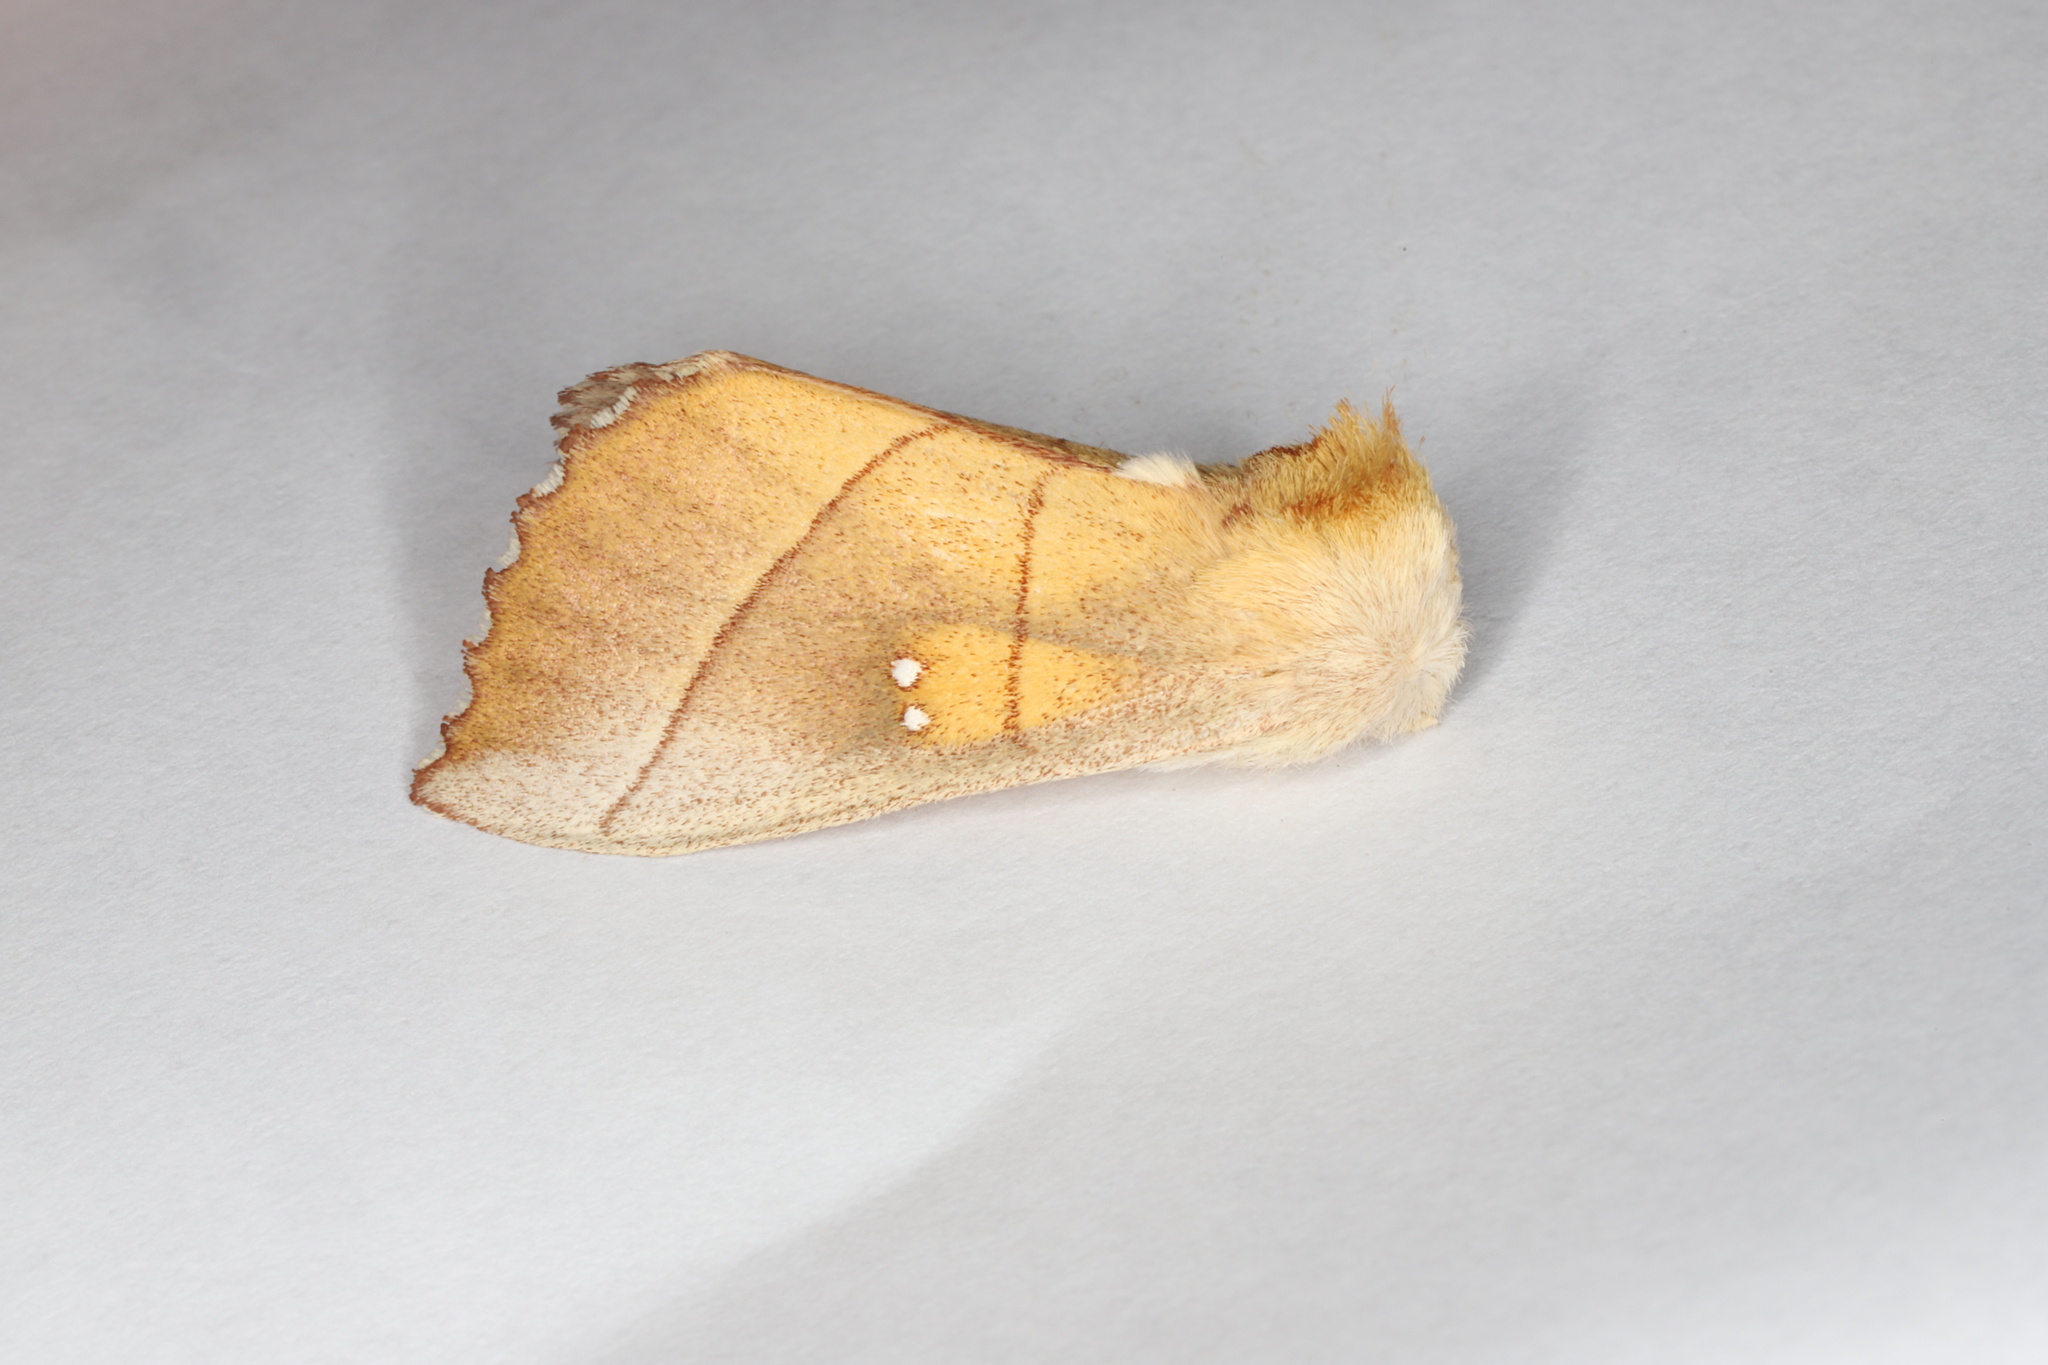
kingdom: Animalia
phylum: Arthropoda
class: Insecta
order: Lepidoptera
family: Notodontidae
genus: Nadata
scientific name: Nadata gibbosa
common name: White-dotted prominent
